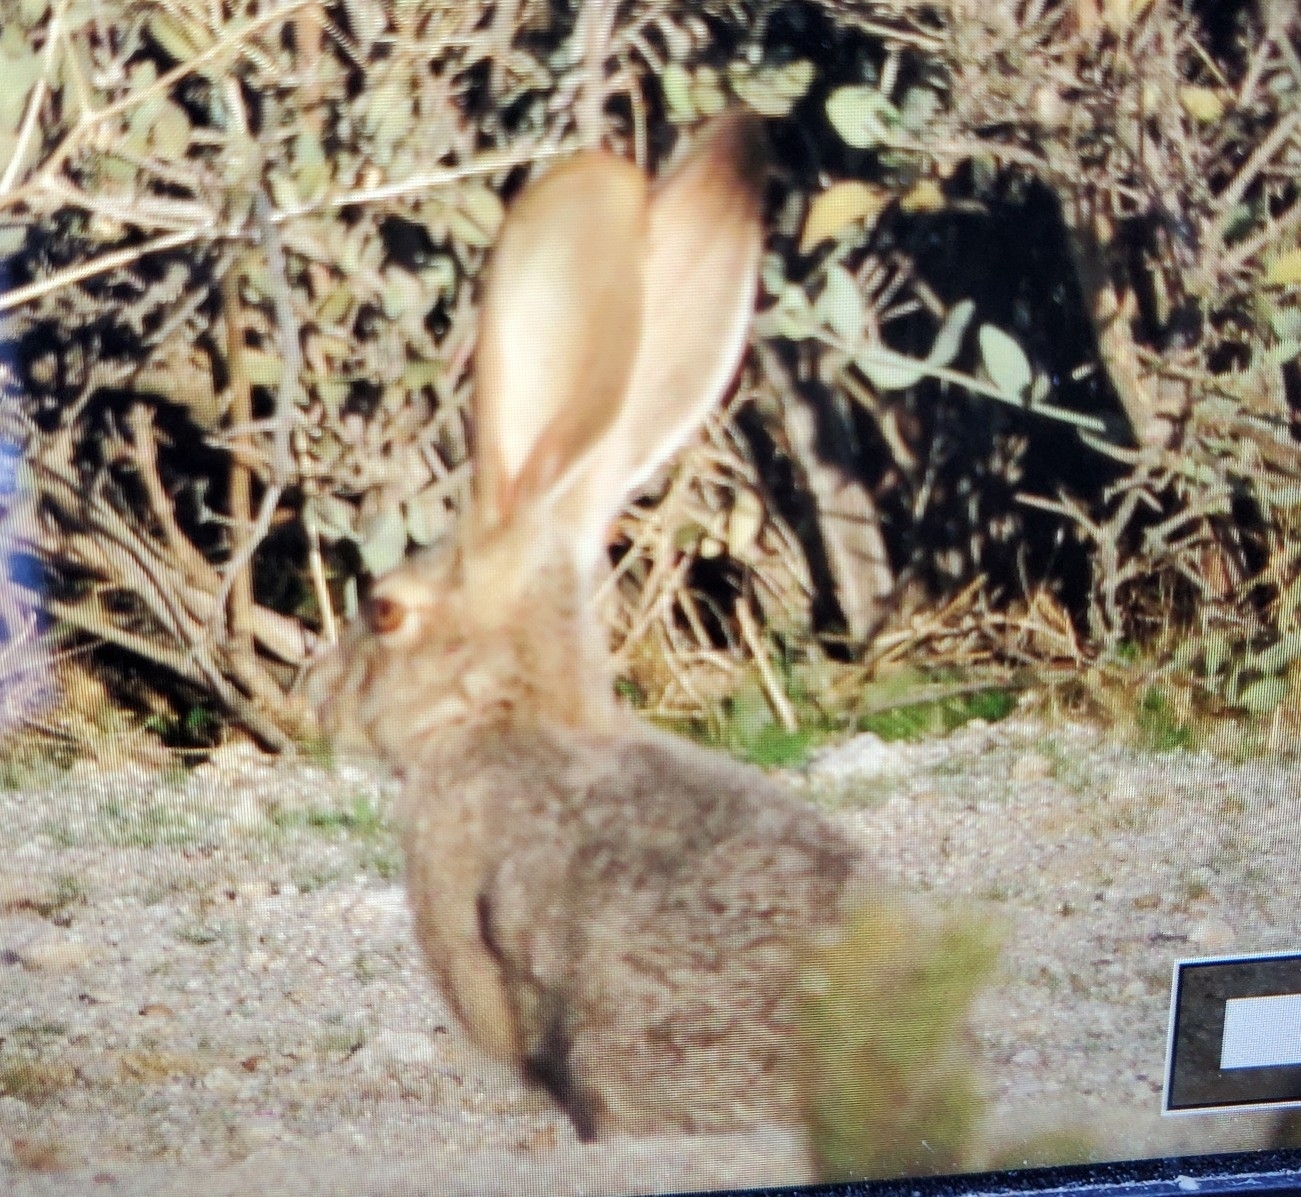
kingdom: Animalia
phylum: Chordata
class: Mammalia
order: Lagomorpha
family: Leporidae
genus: Lepus
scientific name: Lepus californicus
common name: Black-tailed jackrabbit
